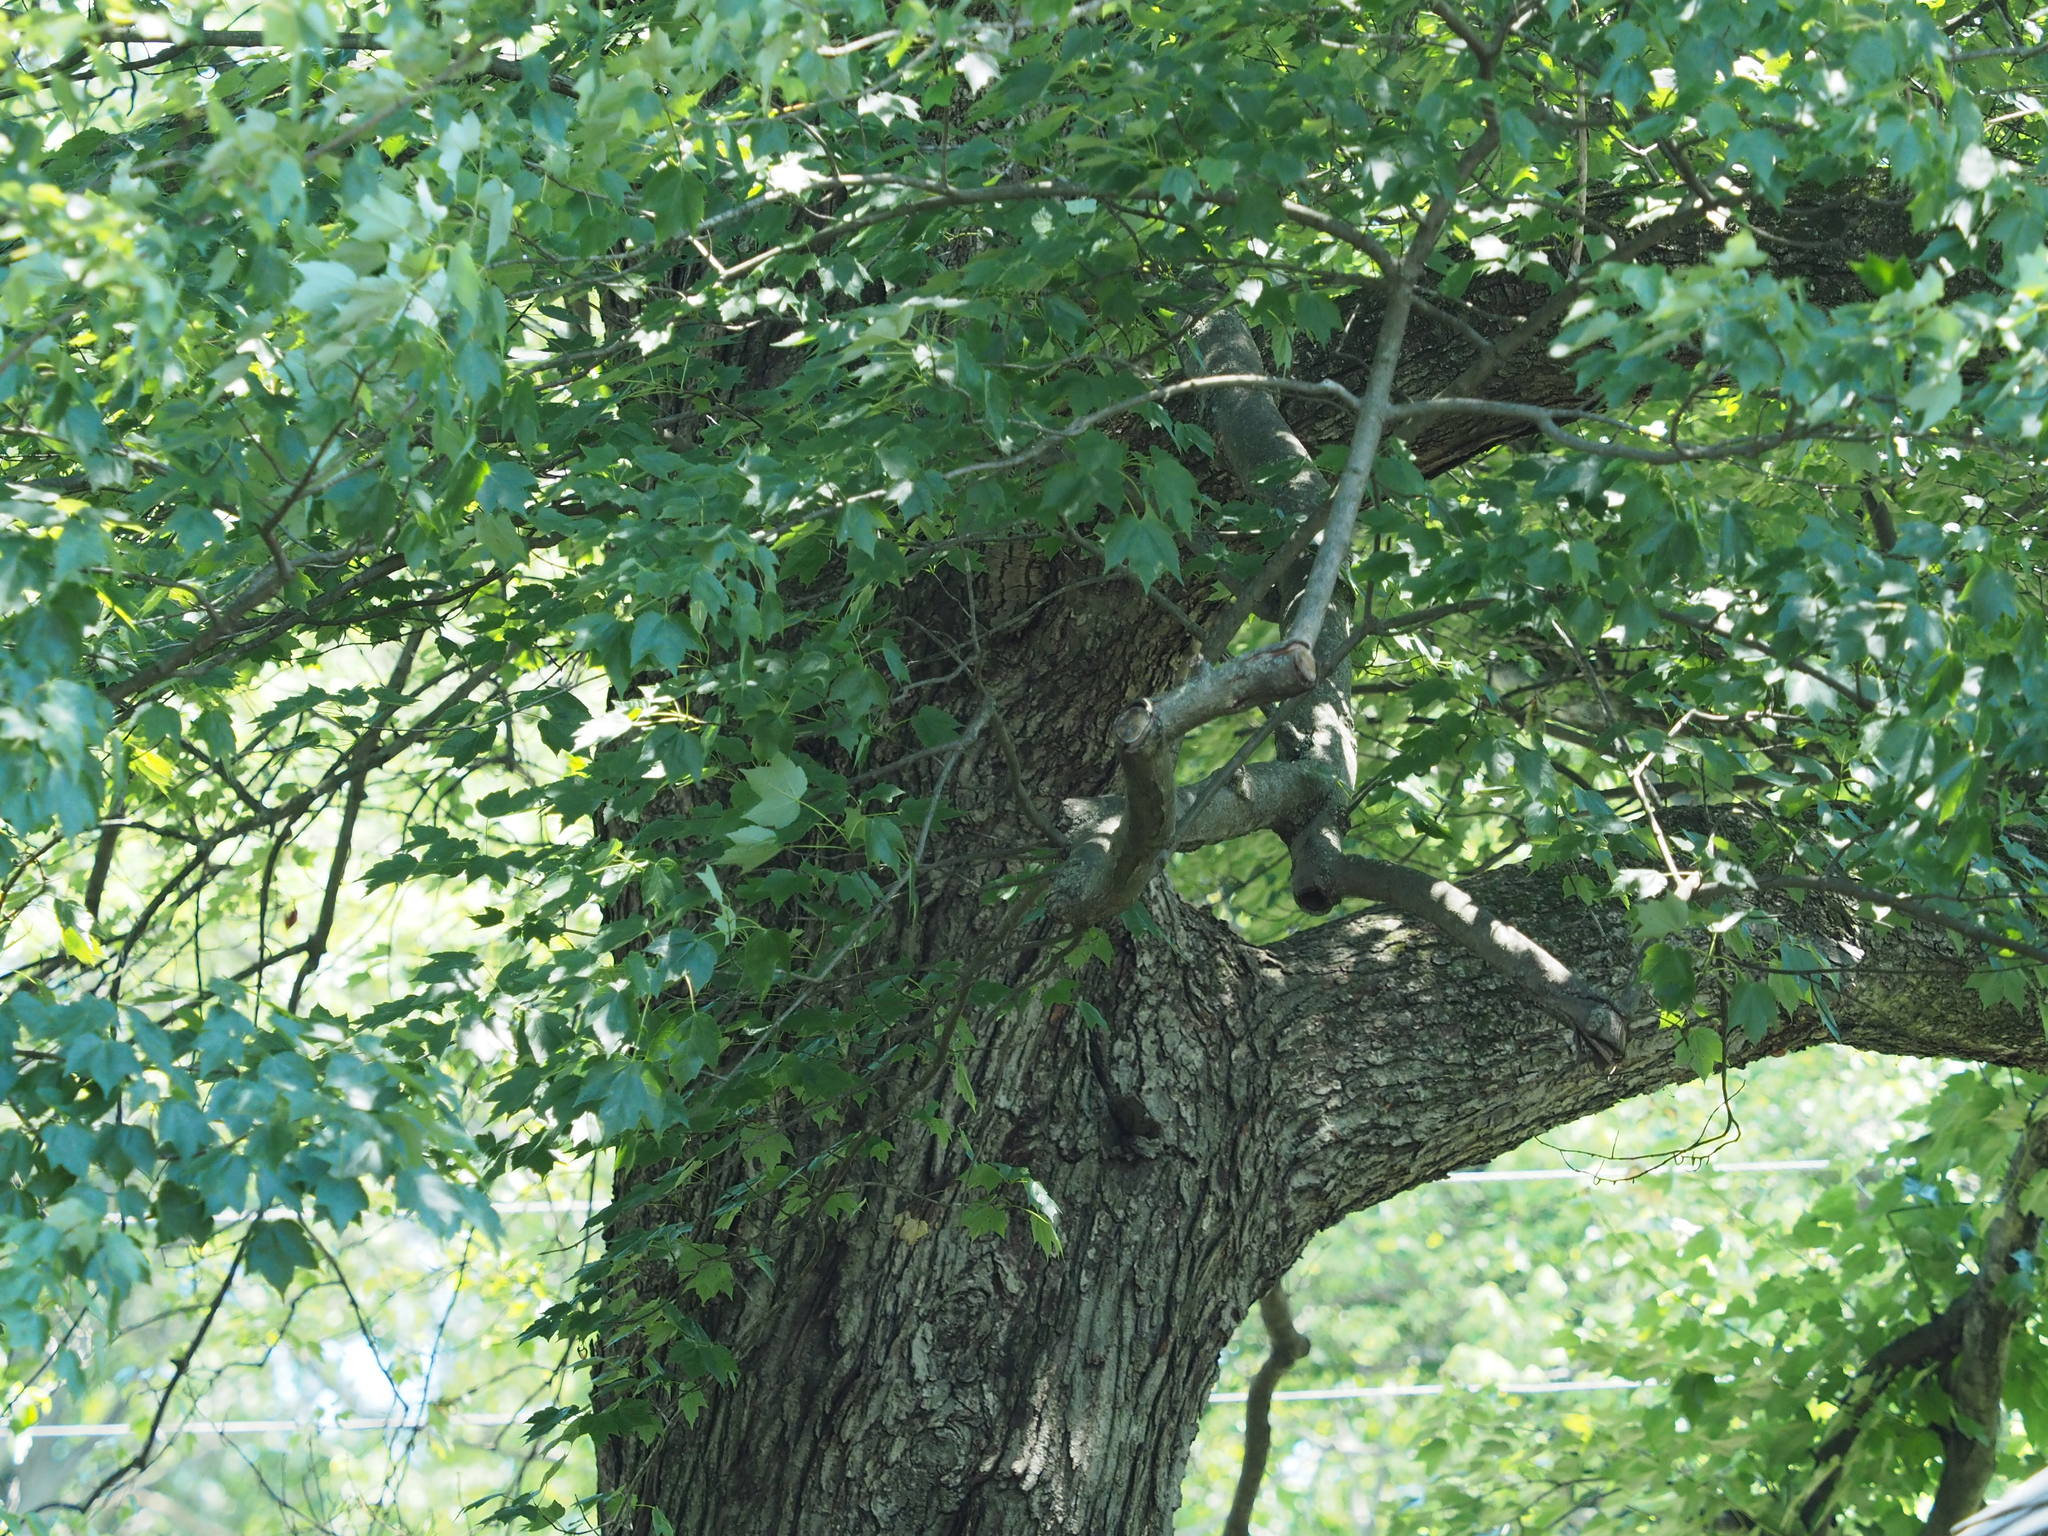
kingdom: Plantae
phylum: Tracheophyta
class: Magnoliopsida
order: Sapindales
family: Sapindaceae
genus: Acer
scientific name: Acer rubrum
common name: Red maple
